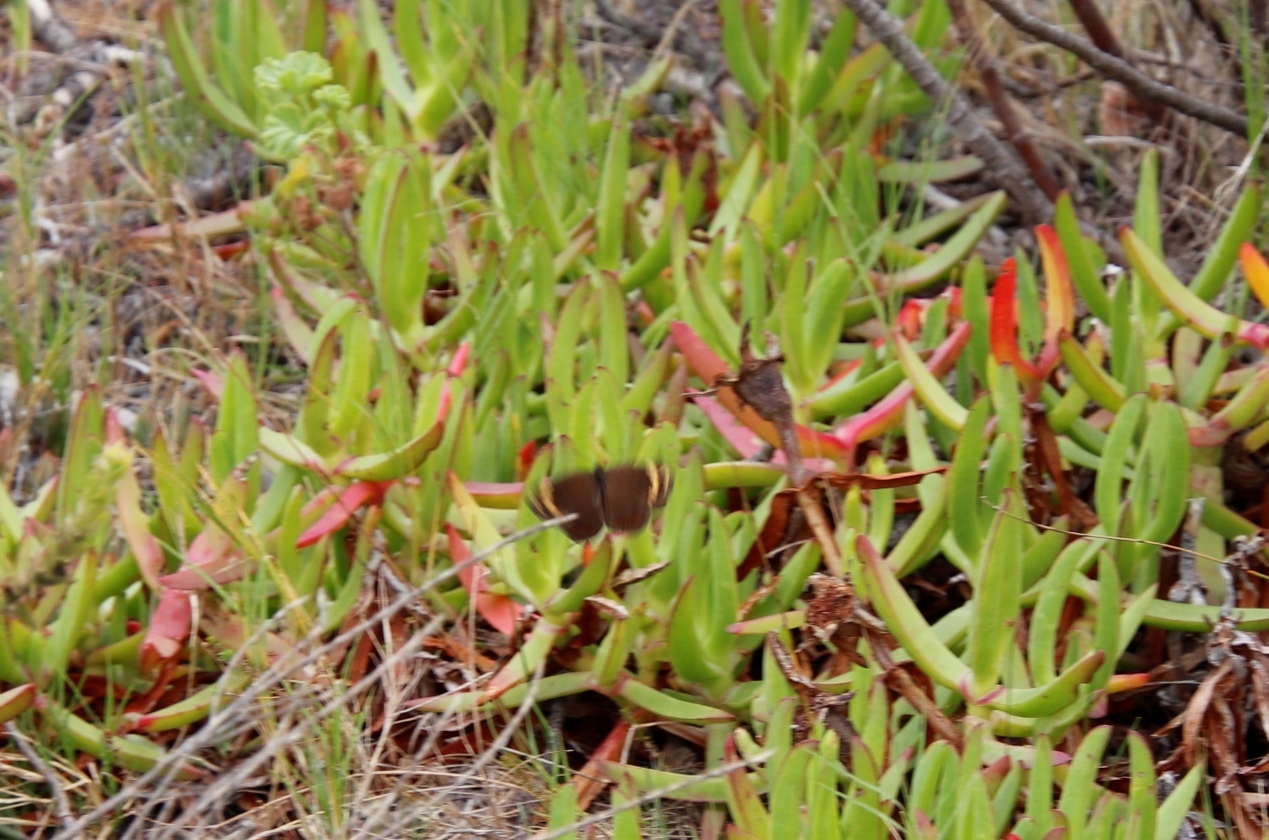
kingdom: Animalia
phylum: Arthropoda
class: Insecta
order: Lepidoptera
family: Nymphalidae
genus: Dira
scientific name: Dira clytus
